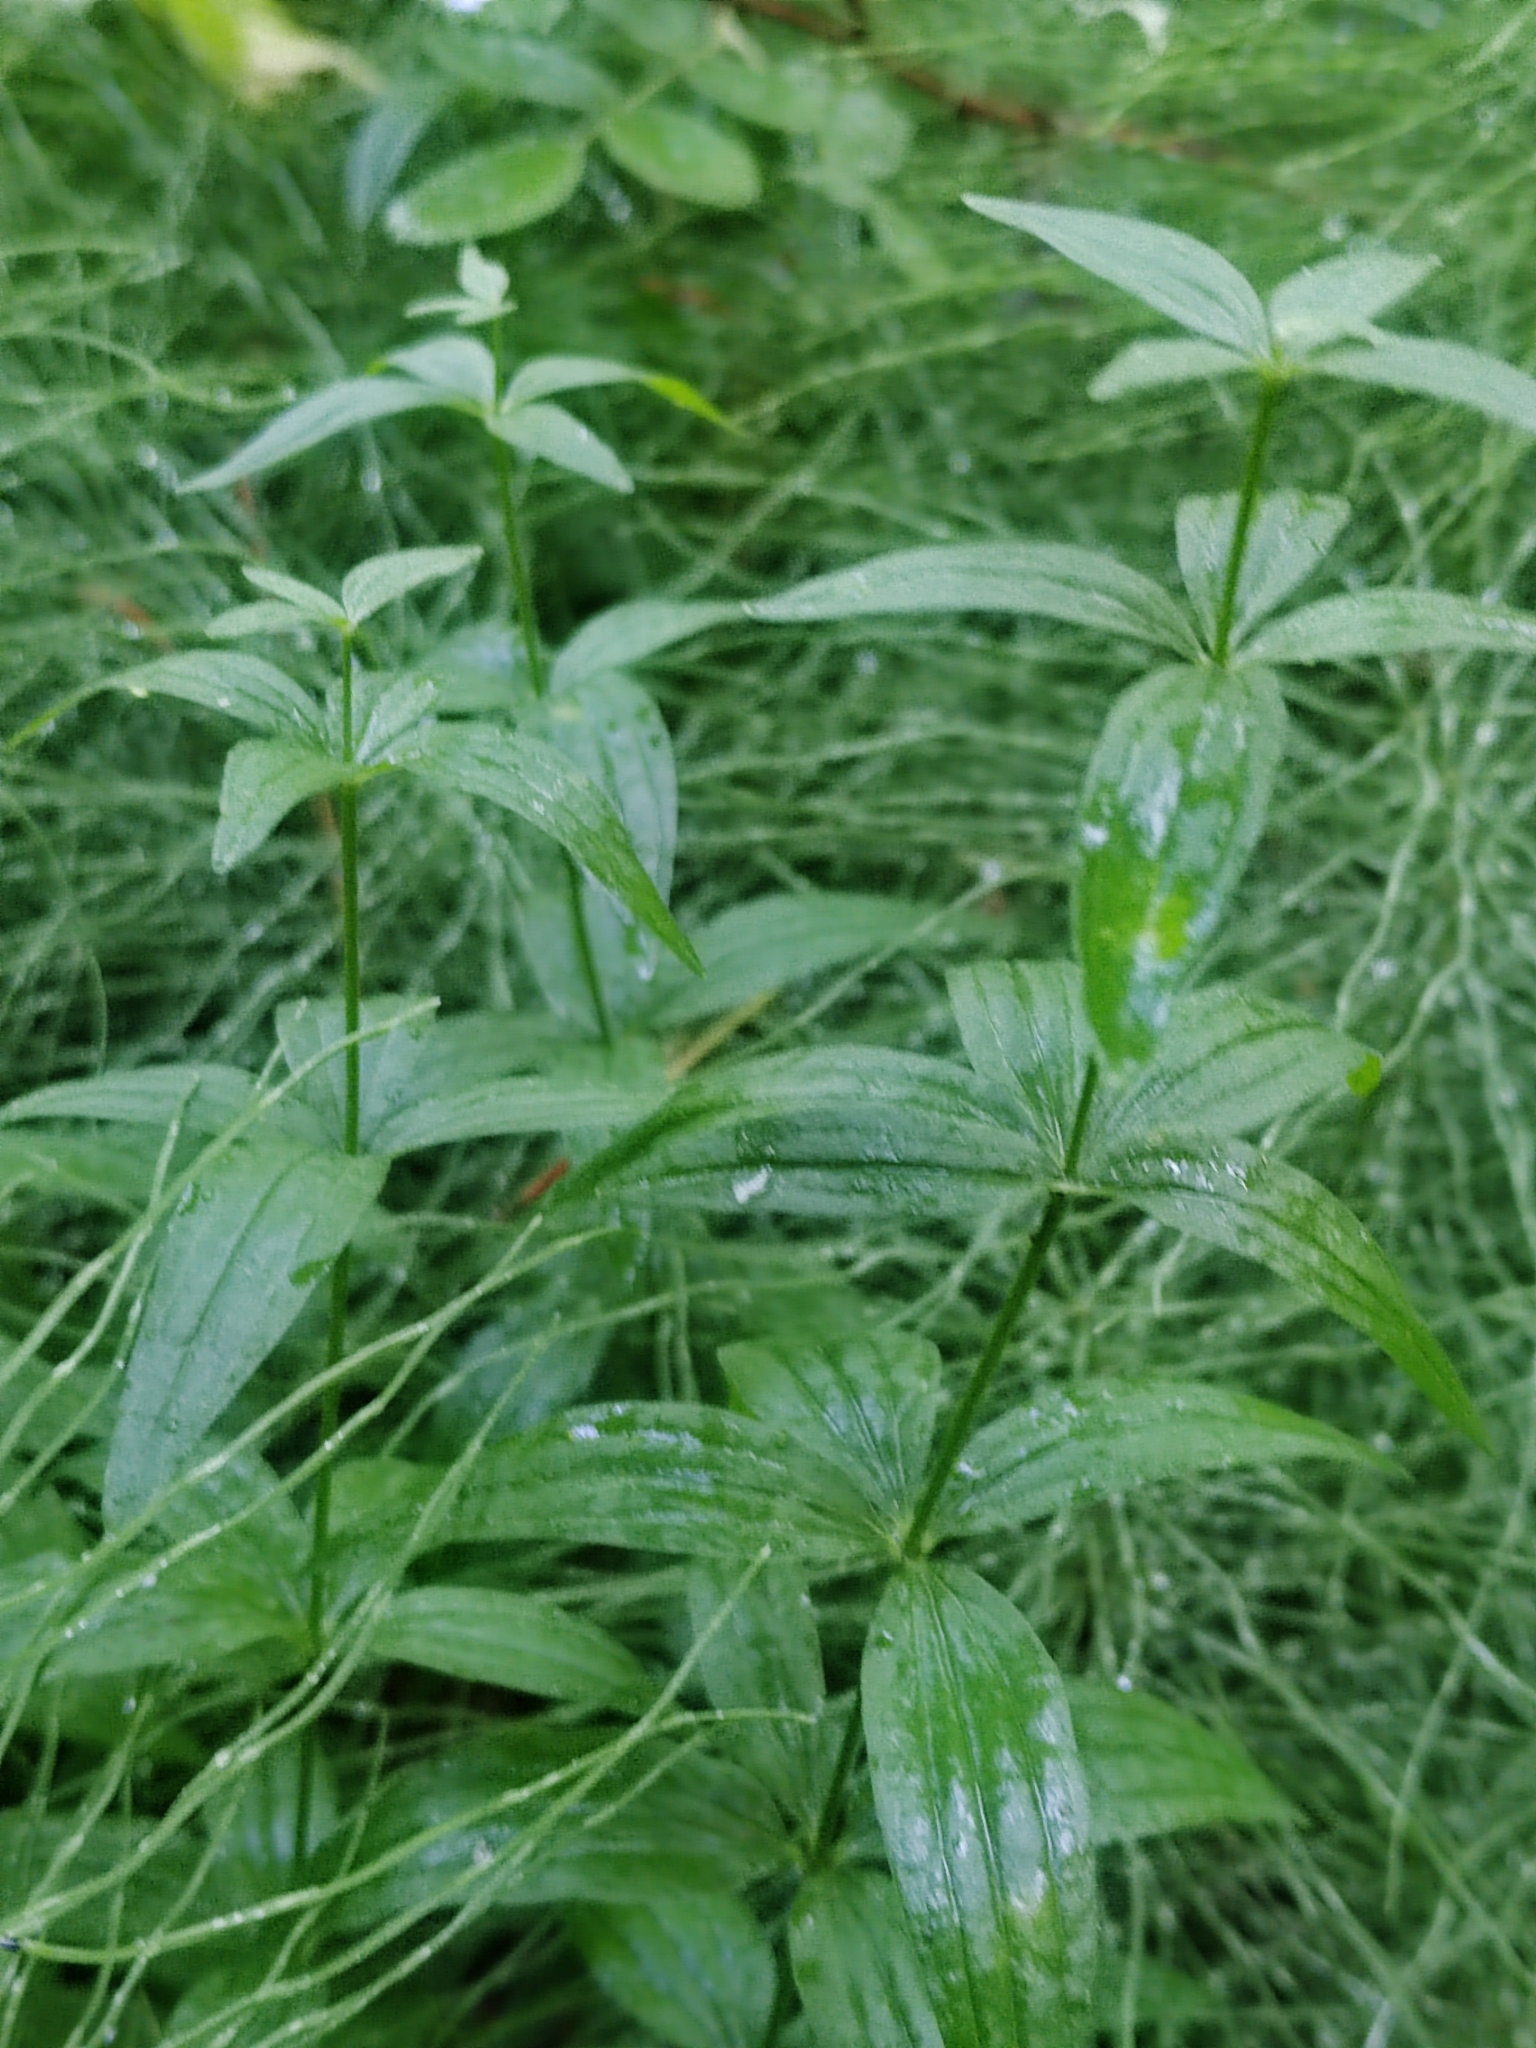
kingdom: Plantae
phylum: Tracheophyta
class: Magnoliopsida
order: Gentianales
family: Rubiaceae
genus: Galium
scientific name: Galium pseudoboreale
